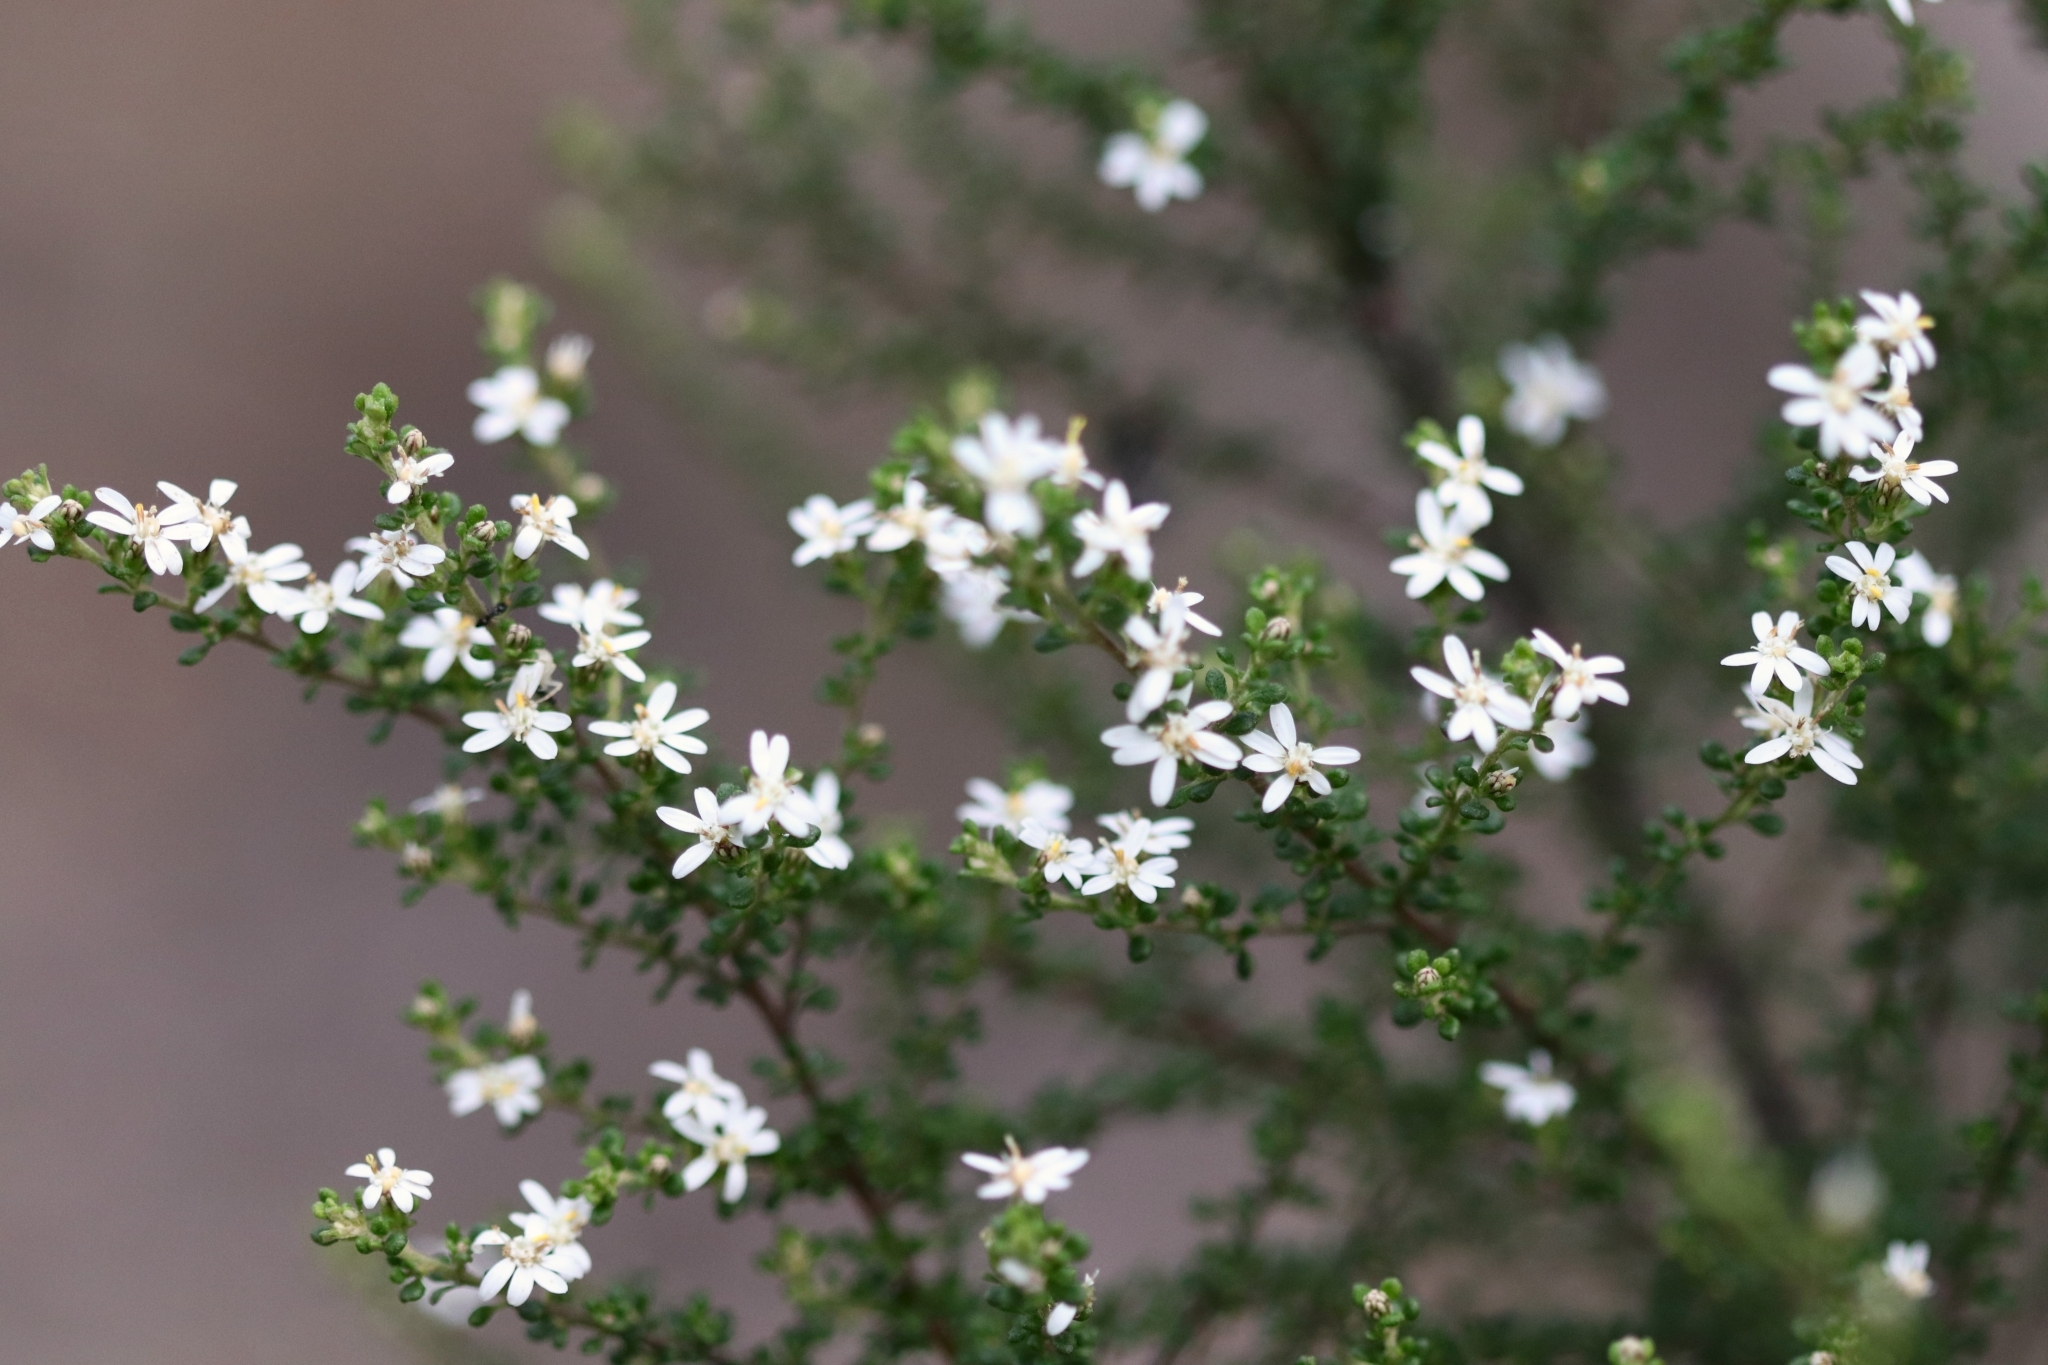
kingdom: Plantae
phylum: Tracheophyta
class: Magnoliopsida
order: Asterales
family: Asteraceae
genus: Olearia
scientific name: Olearia microphylla
